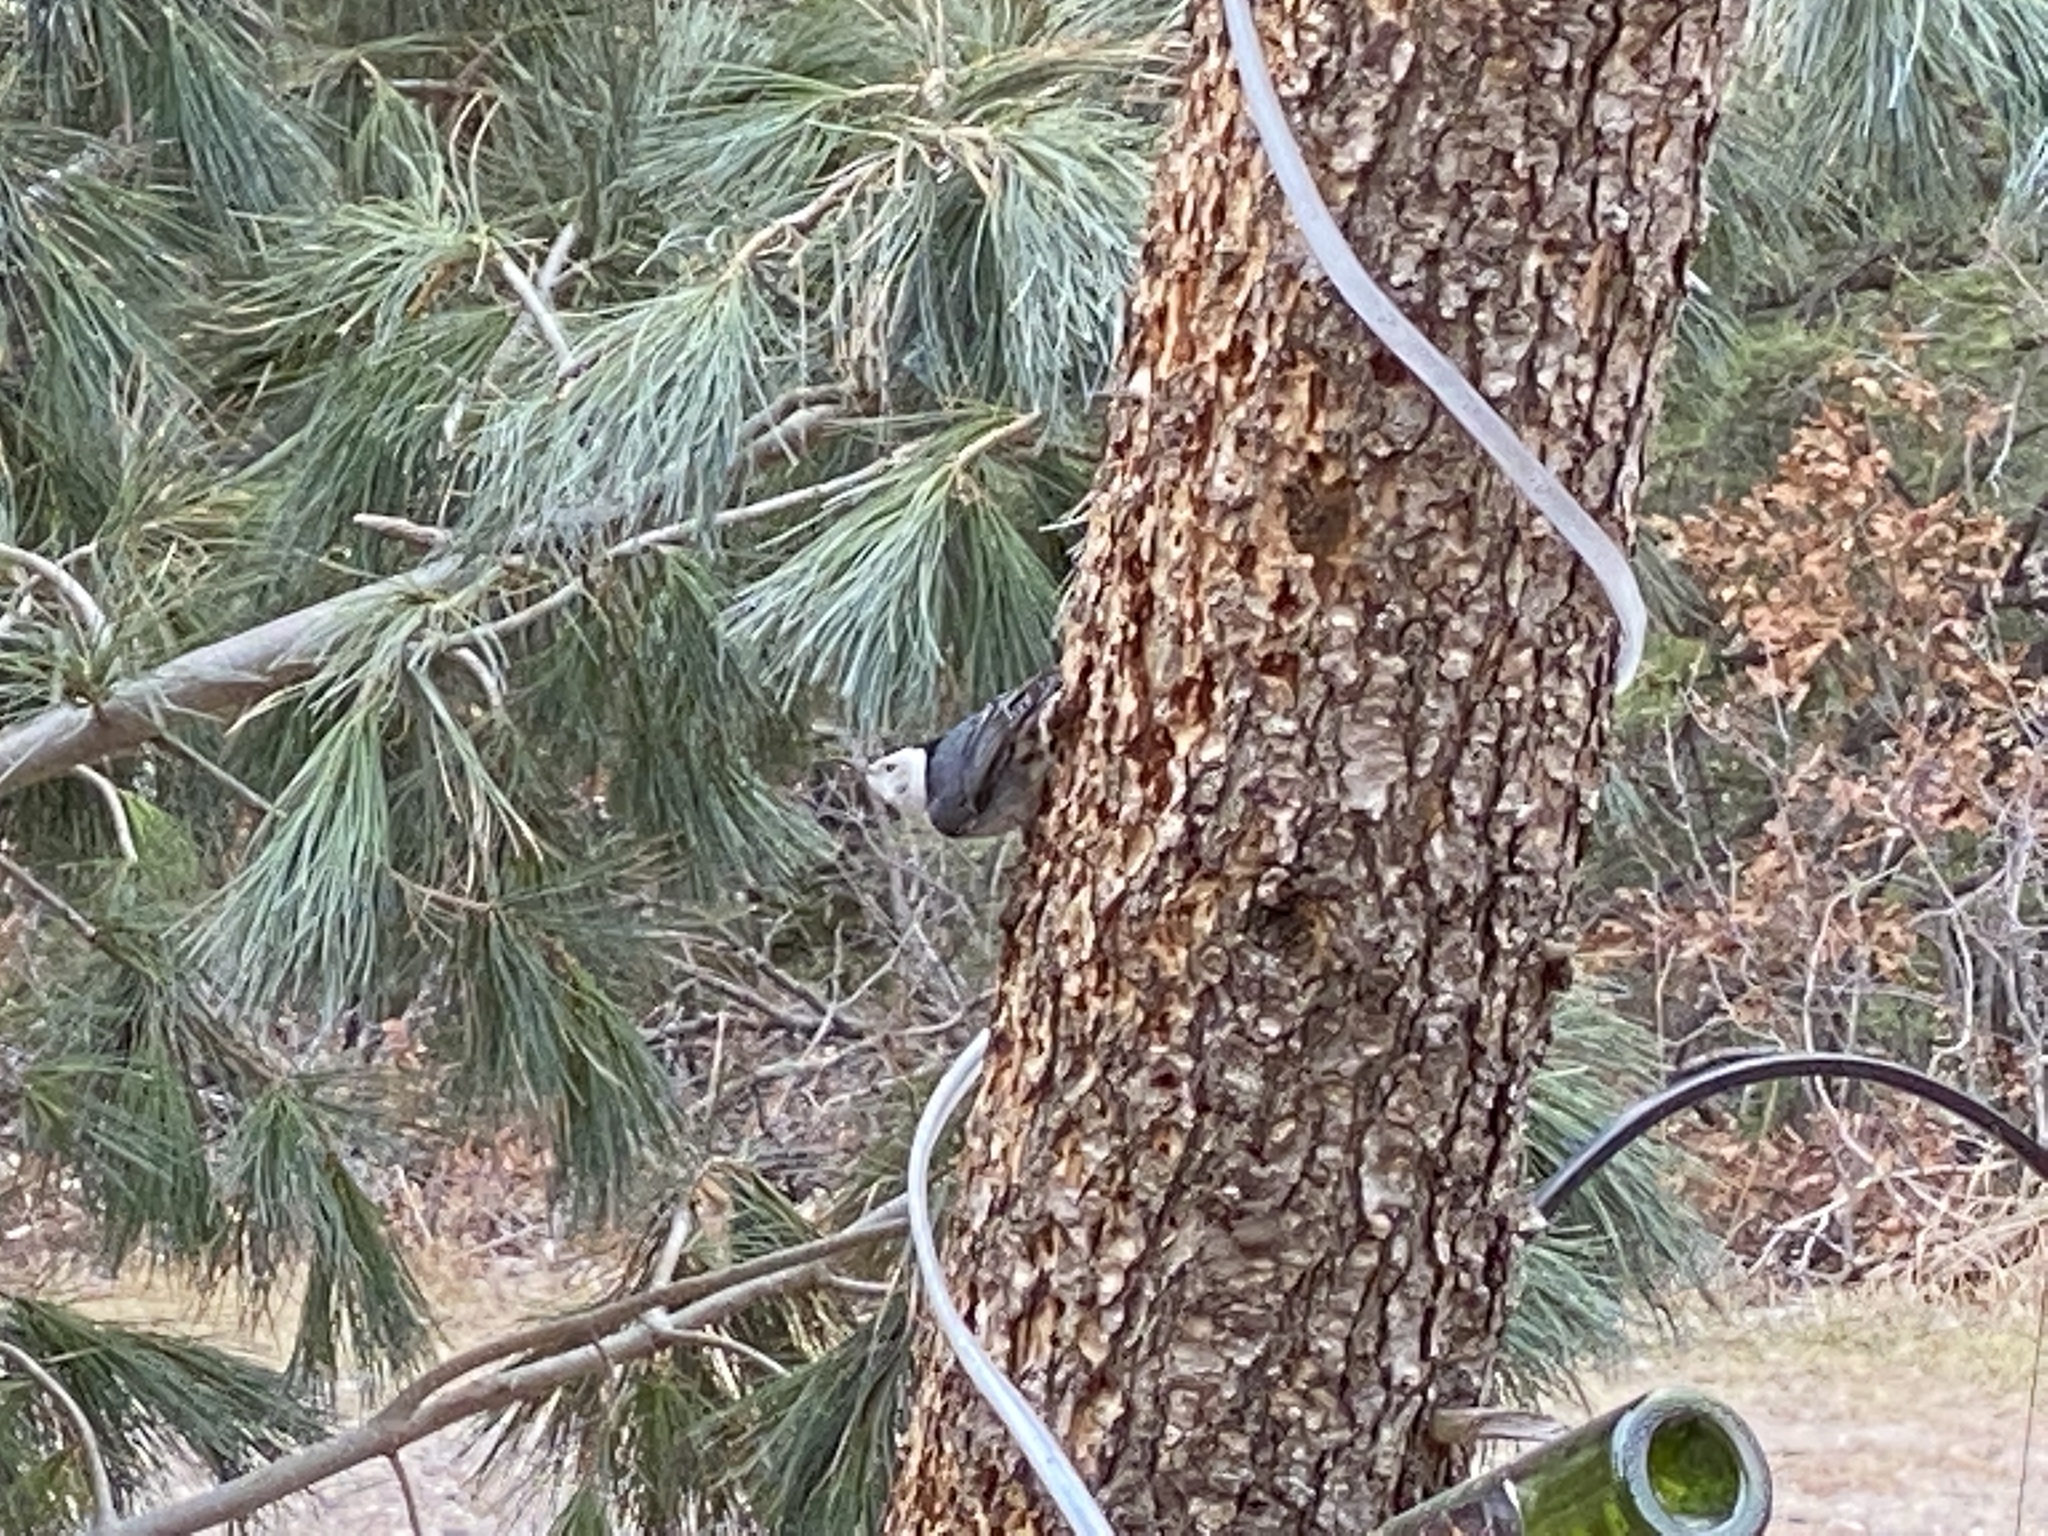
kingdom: Animalia
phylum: Chordata
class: Aves
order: Passeriformes
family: Sittidae
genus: Sitta
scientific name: Sitta carolinensis
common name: White-breasted nuthatch
